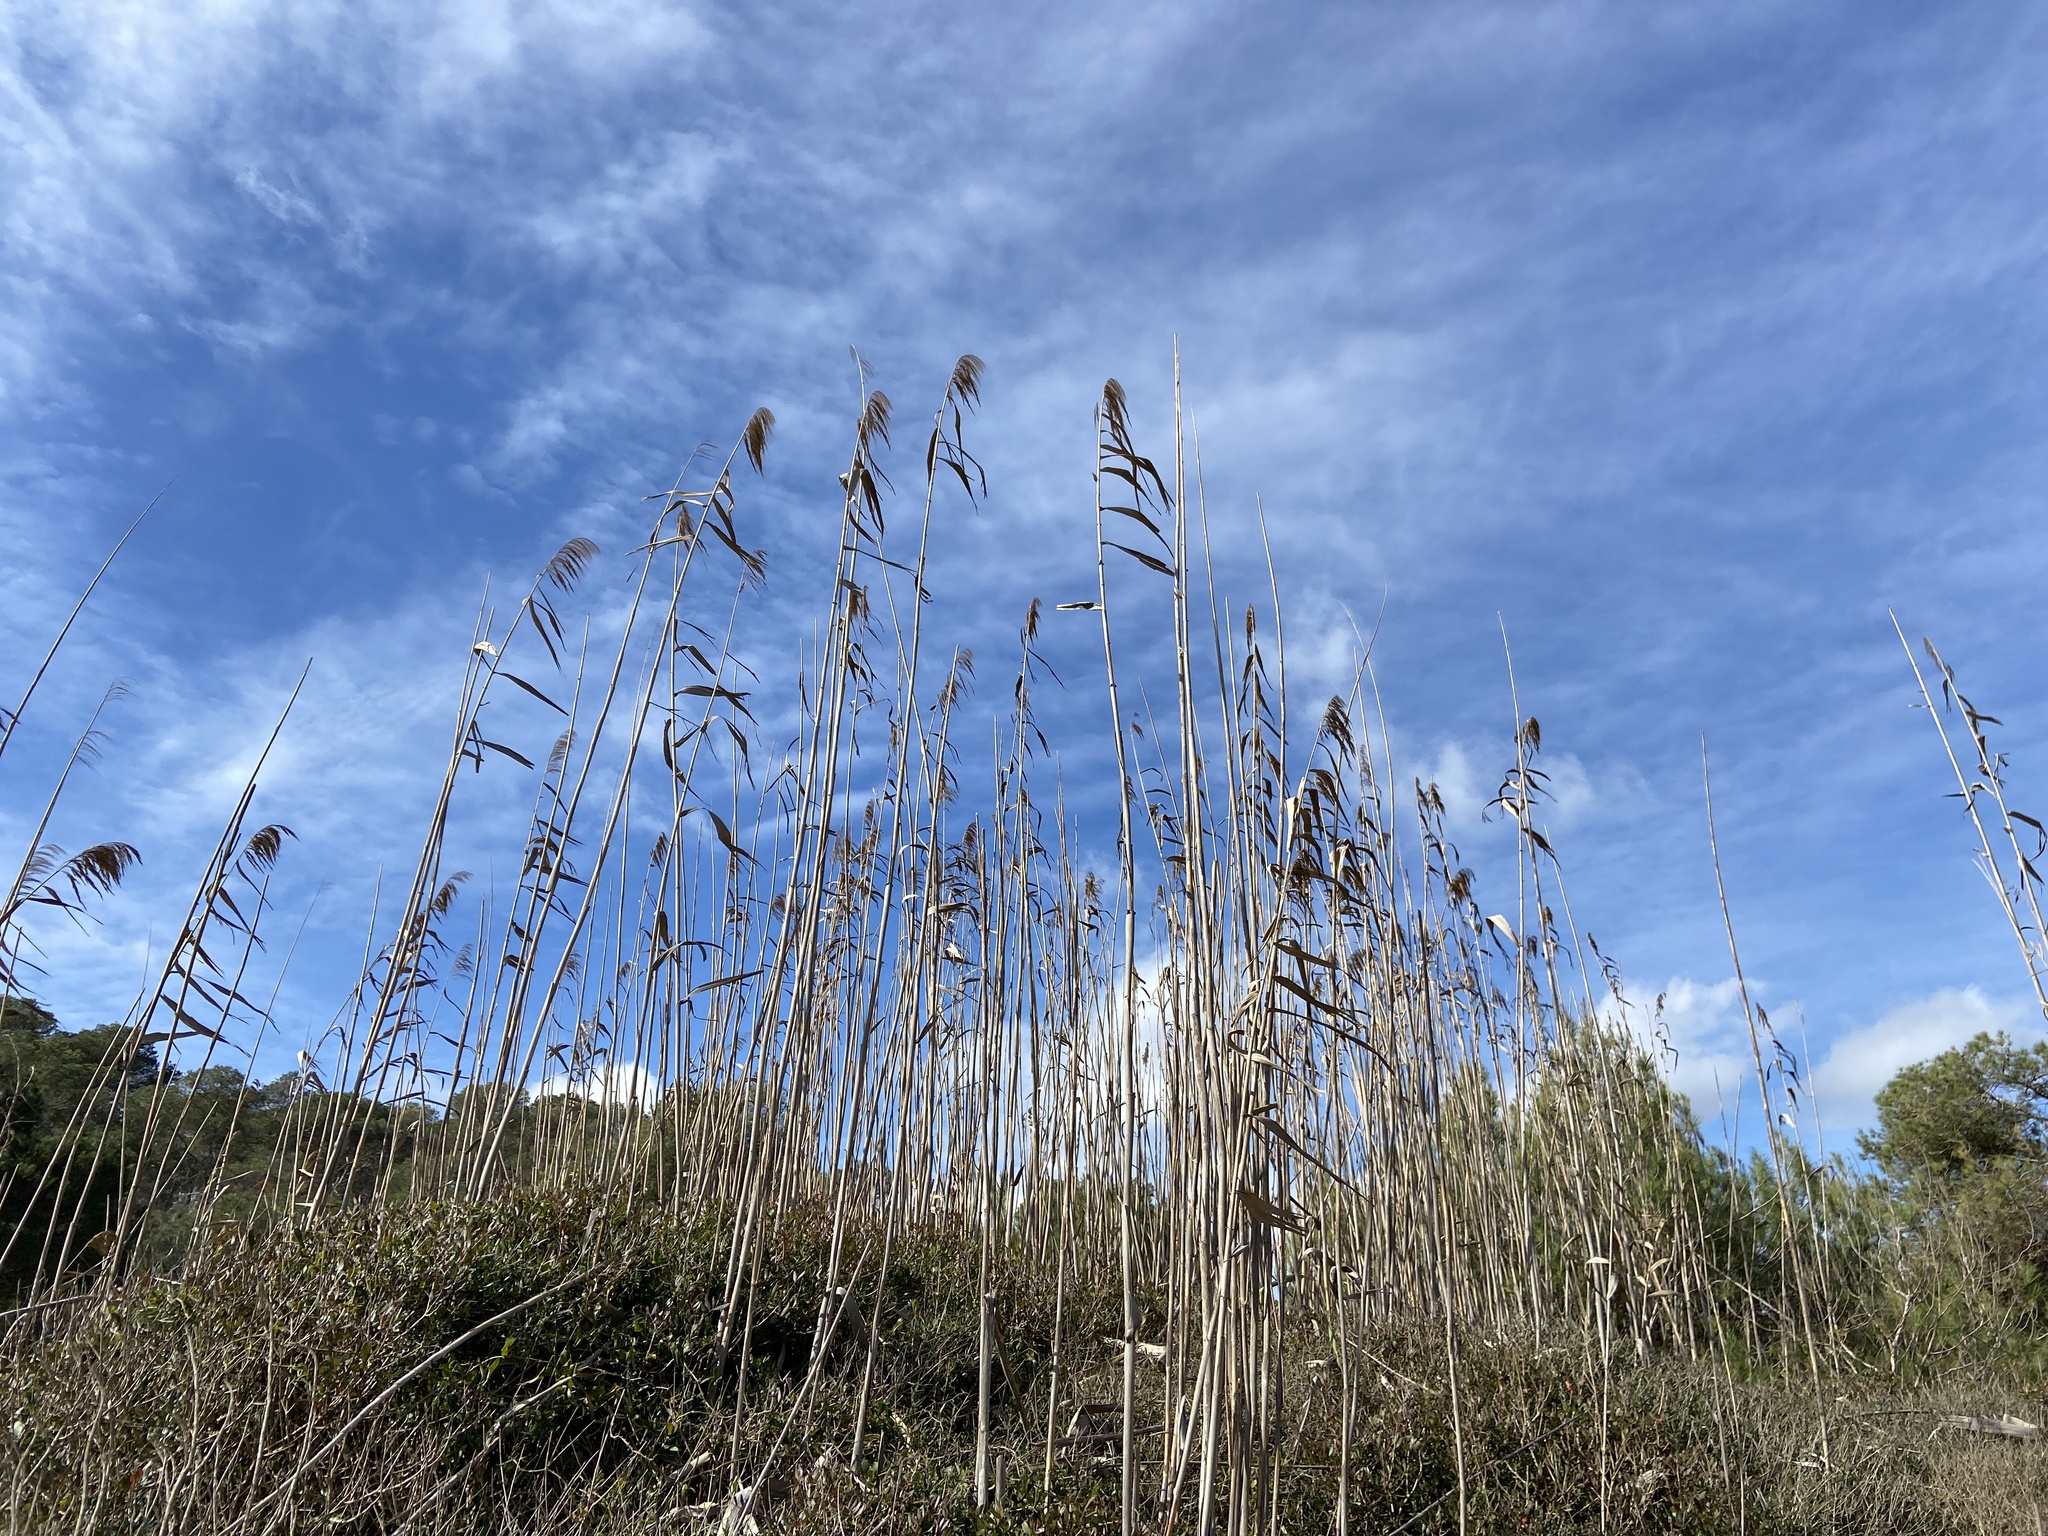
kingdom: Plantae
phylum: Tracheophyta
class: Liliopsida
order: Poales
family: Poaceae
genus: Phragmites
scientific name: Phragmites australis
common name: Common reed
